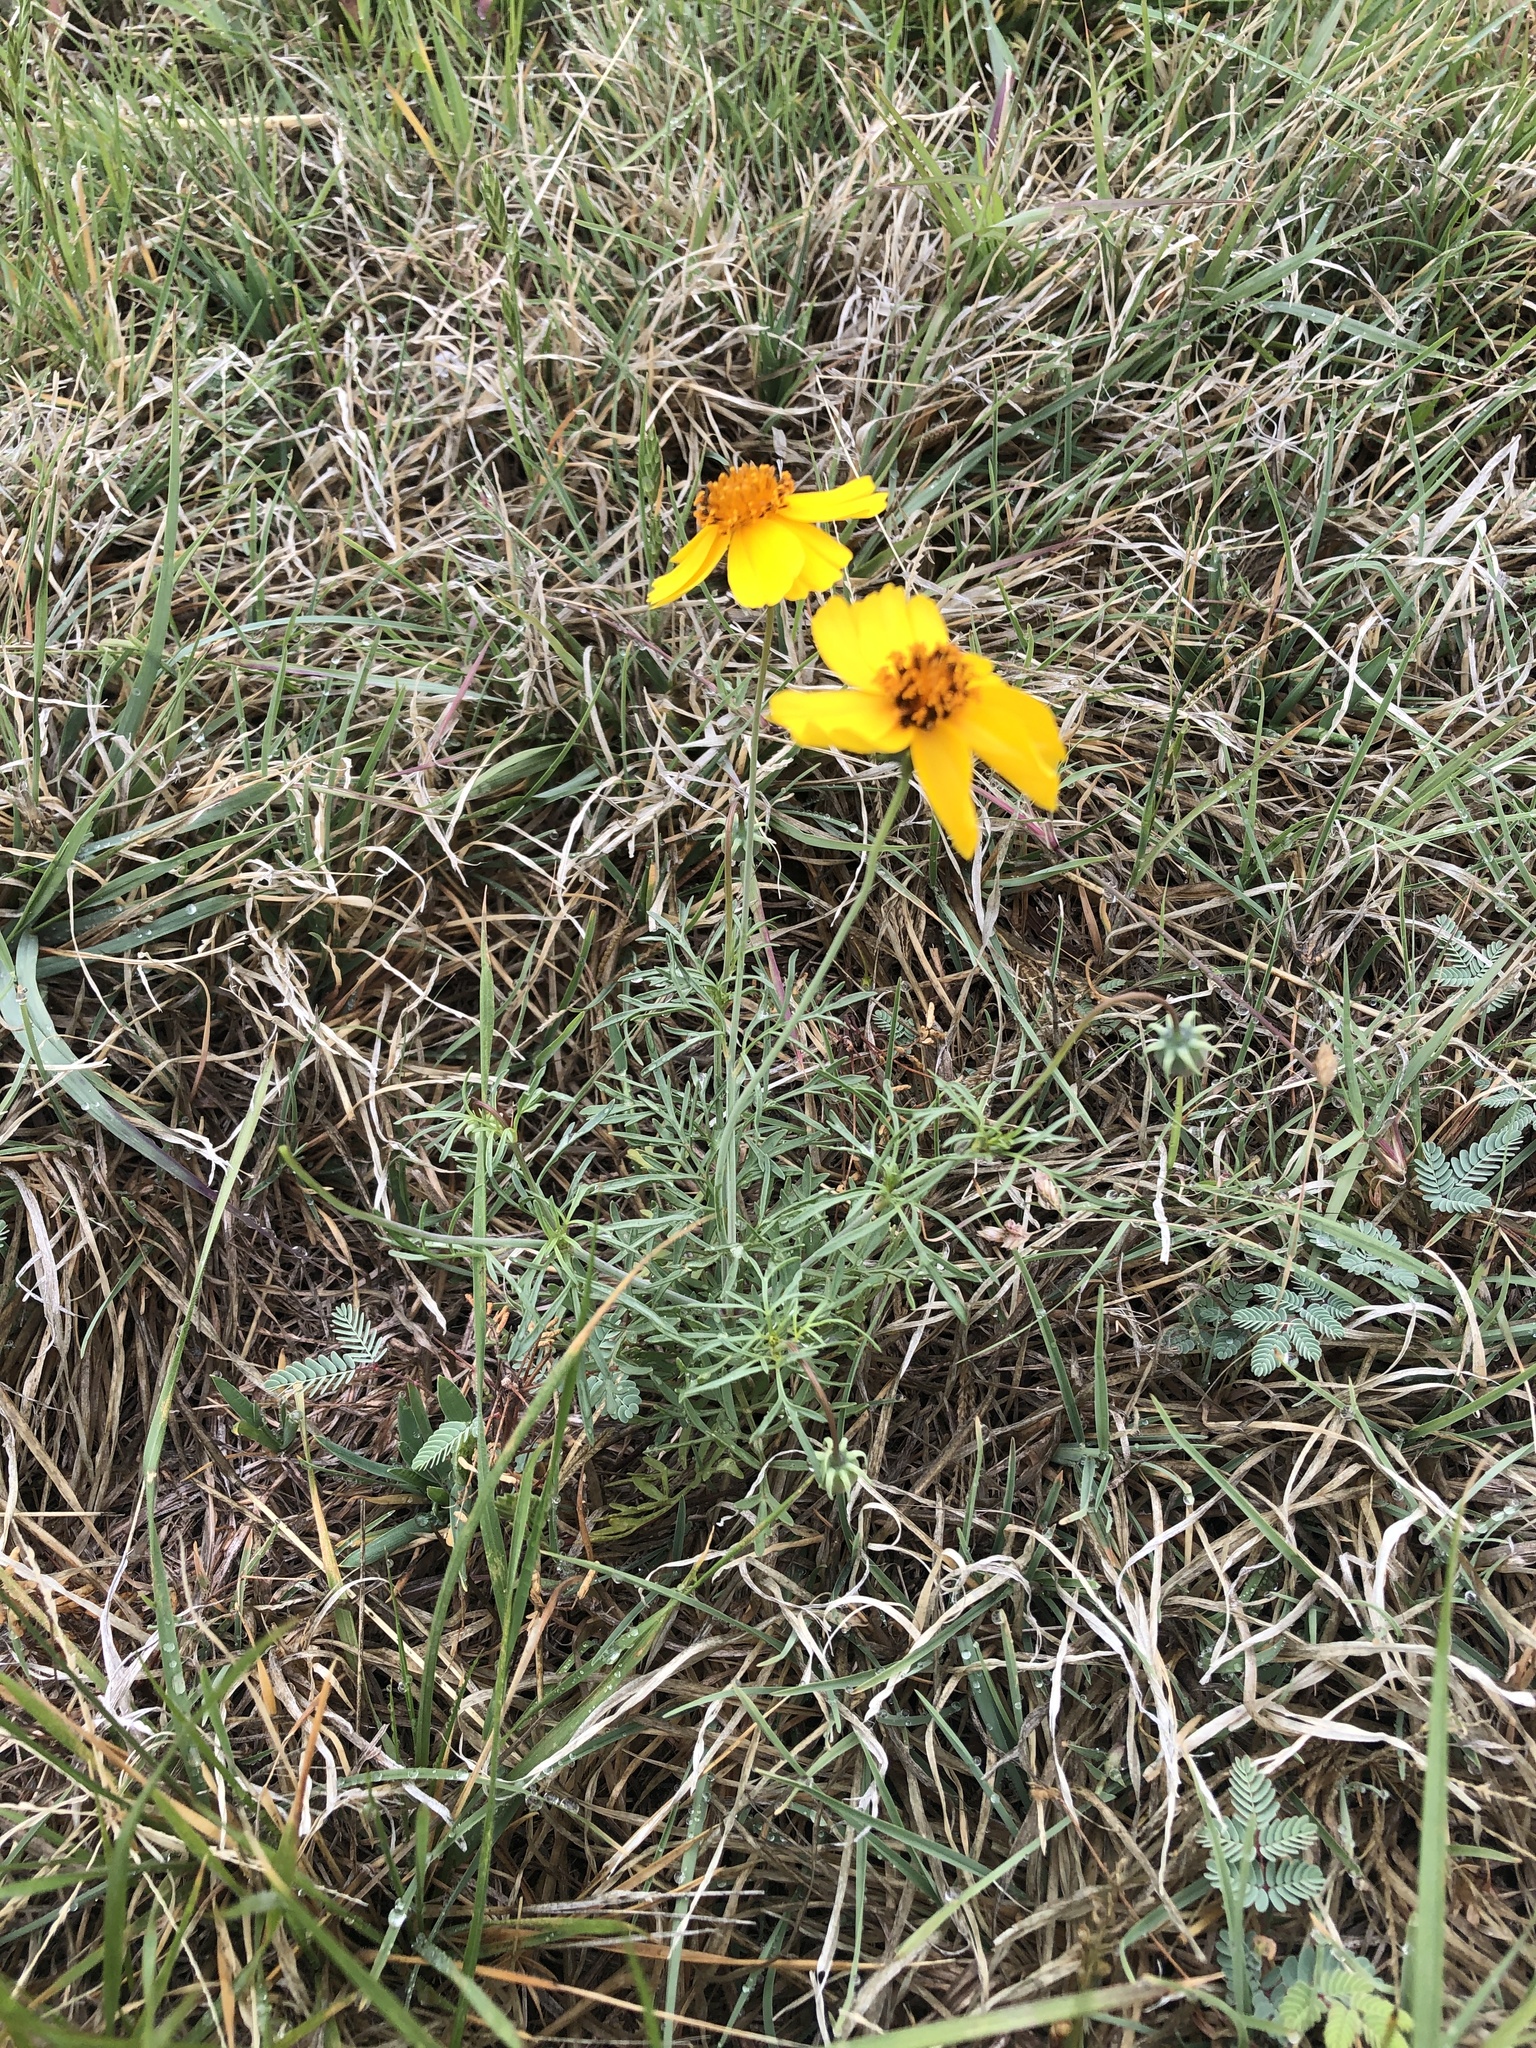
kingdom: Plantae
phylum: Tracheophyta
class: Magnoliopsida
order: Asterales
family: Asteraceae
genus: Thelesperma
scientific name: Thelesperma filifolium
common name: Stiff greenthread
